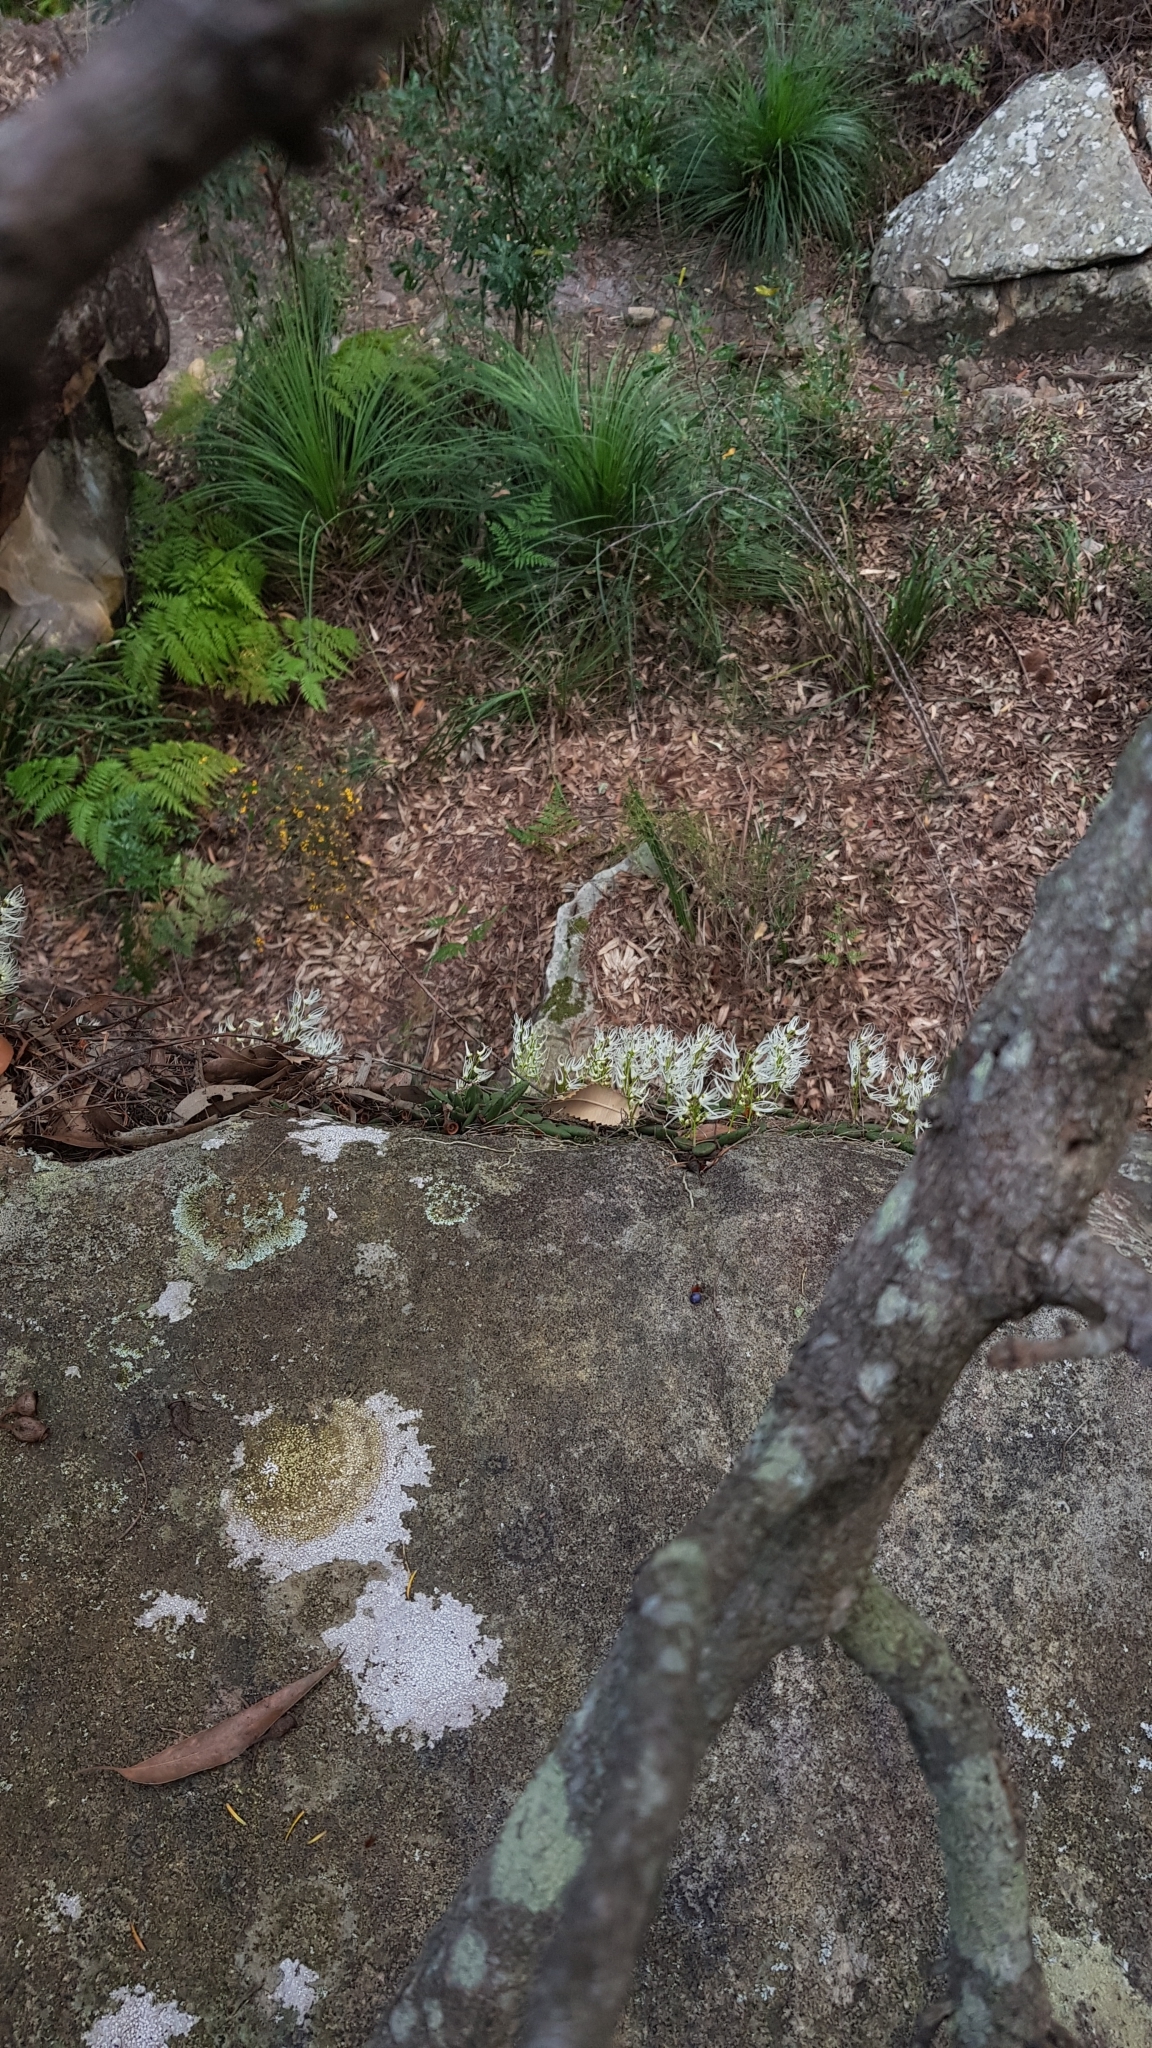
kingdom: Plantae
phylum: Tracheophyta
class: Liliopsida
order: Asparagales
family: Orchidaceae
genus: Dendrobium
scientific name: Dendrobium linguiforme
